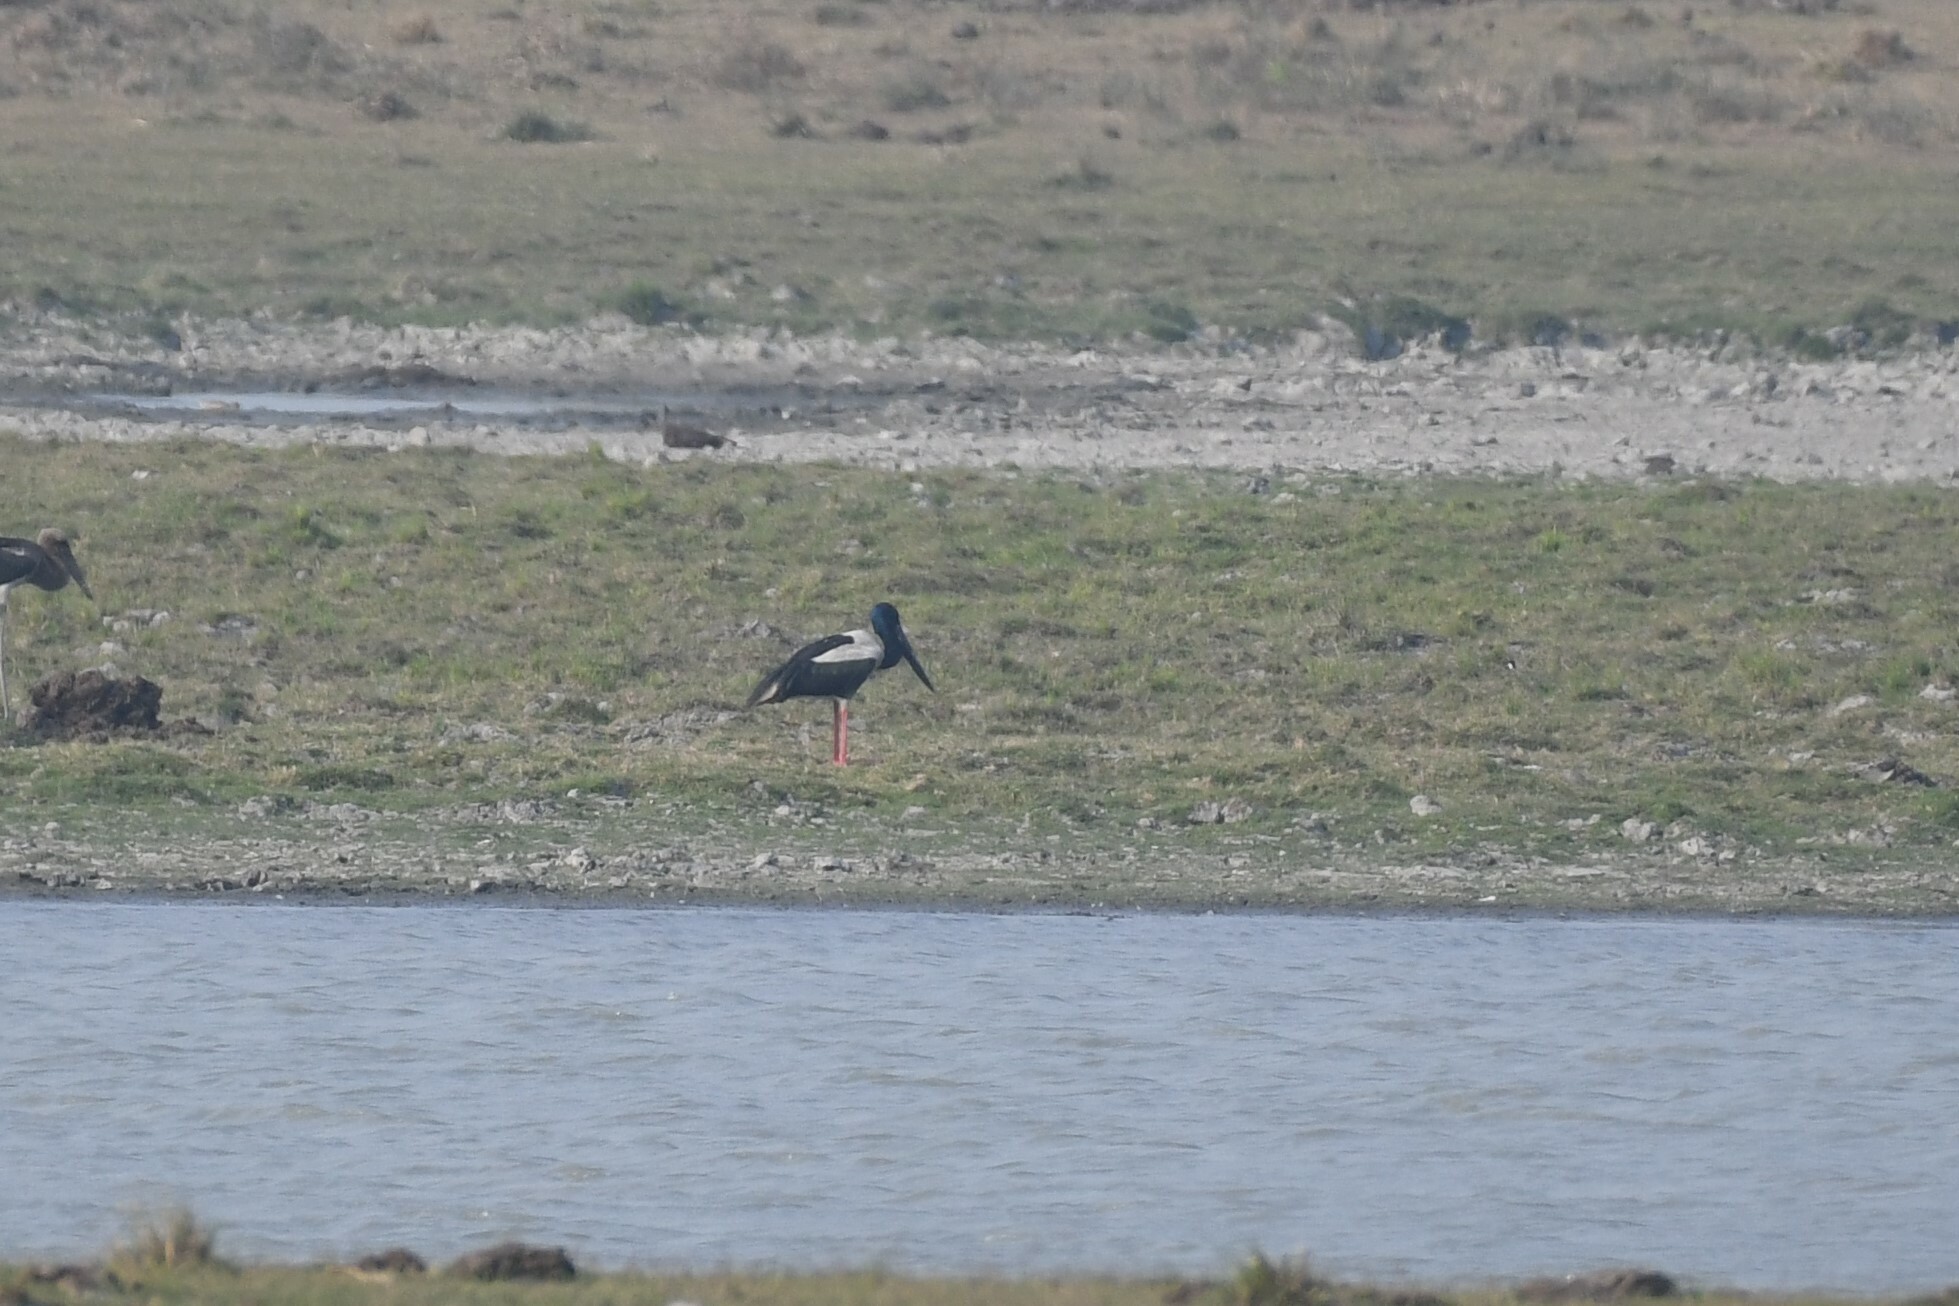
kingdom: Animalia
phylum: Chordata
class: Aves
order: Ciconiiformes
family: Ciconiidae
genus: Ephippiorhynchus
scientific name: Ephippiorhynchus asiaticus
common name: Black-necked stork
